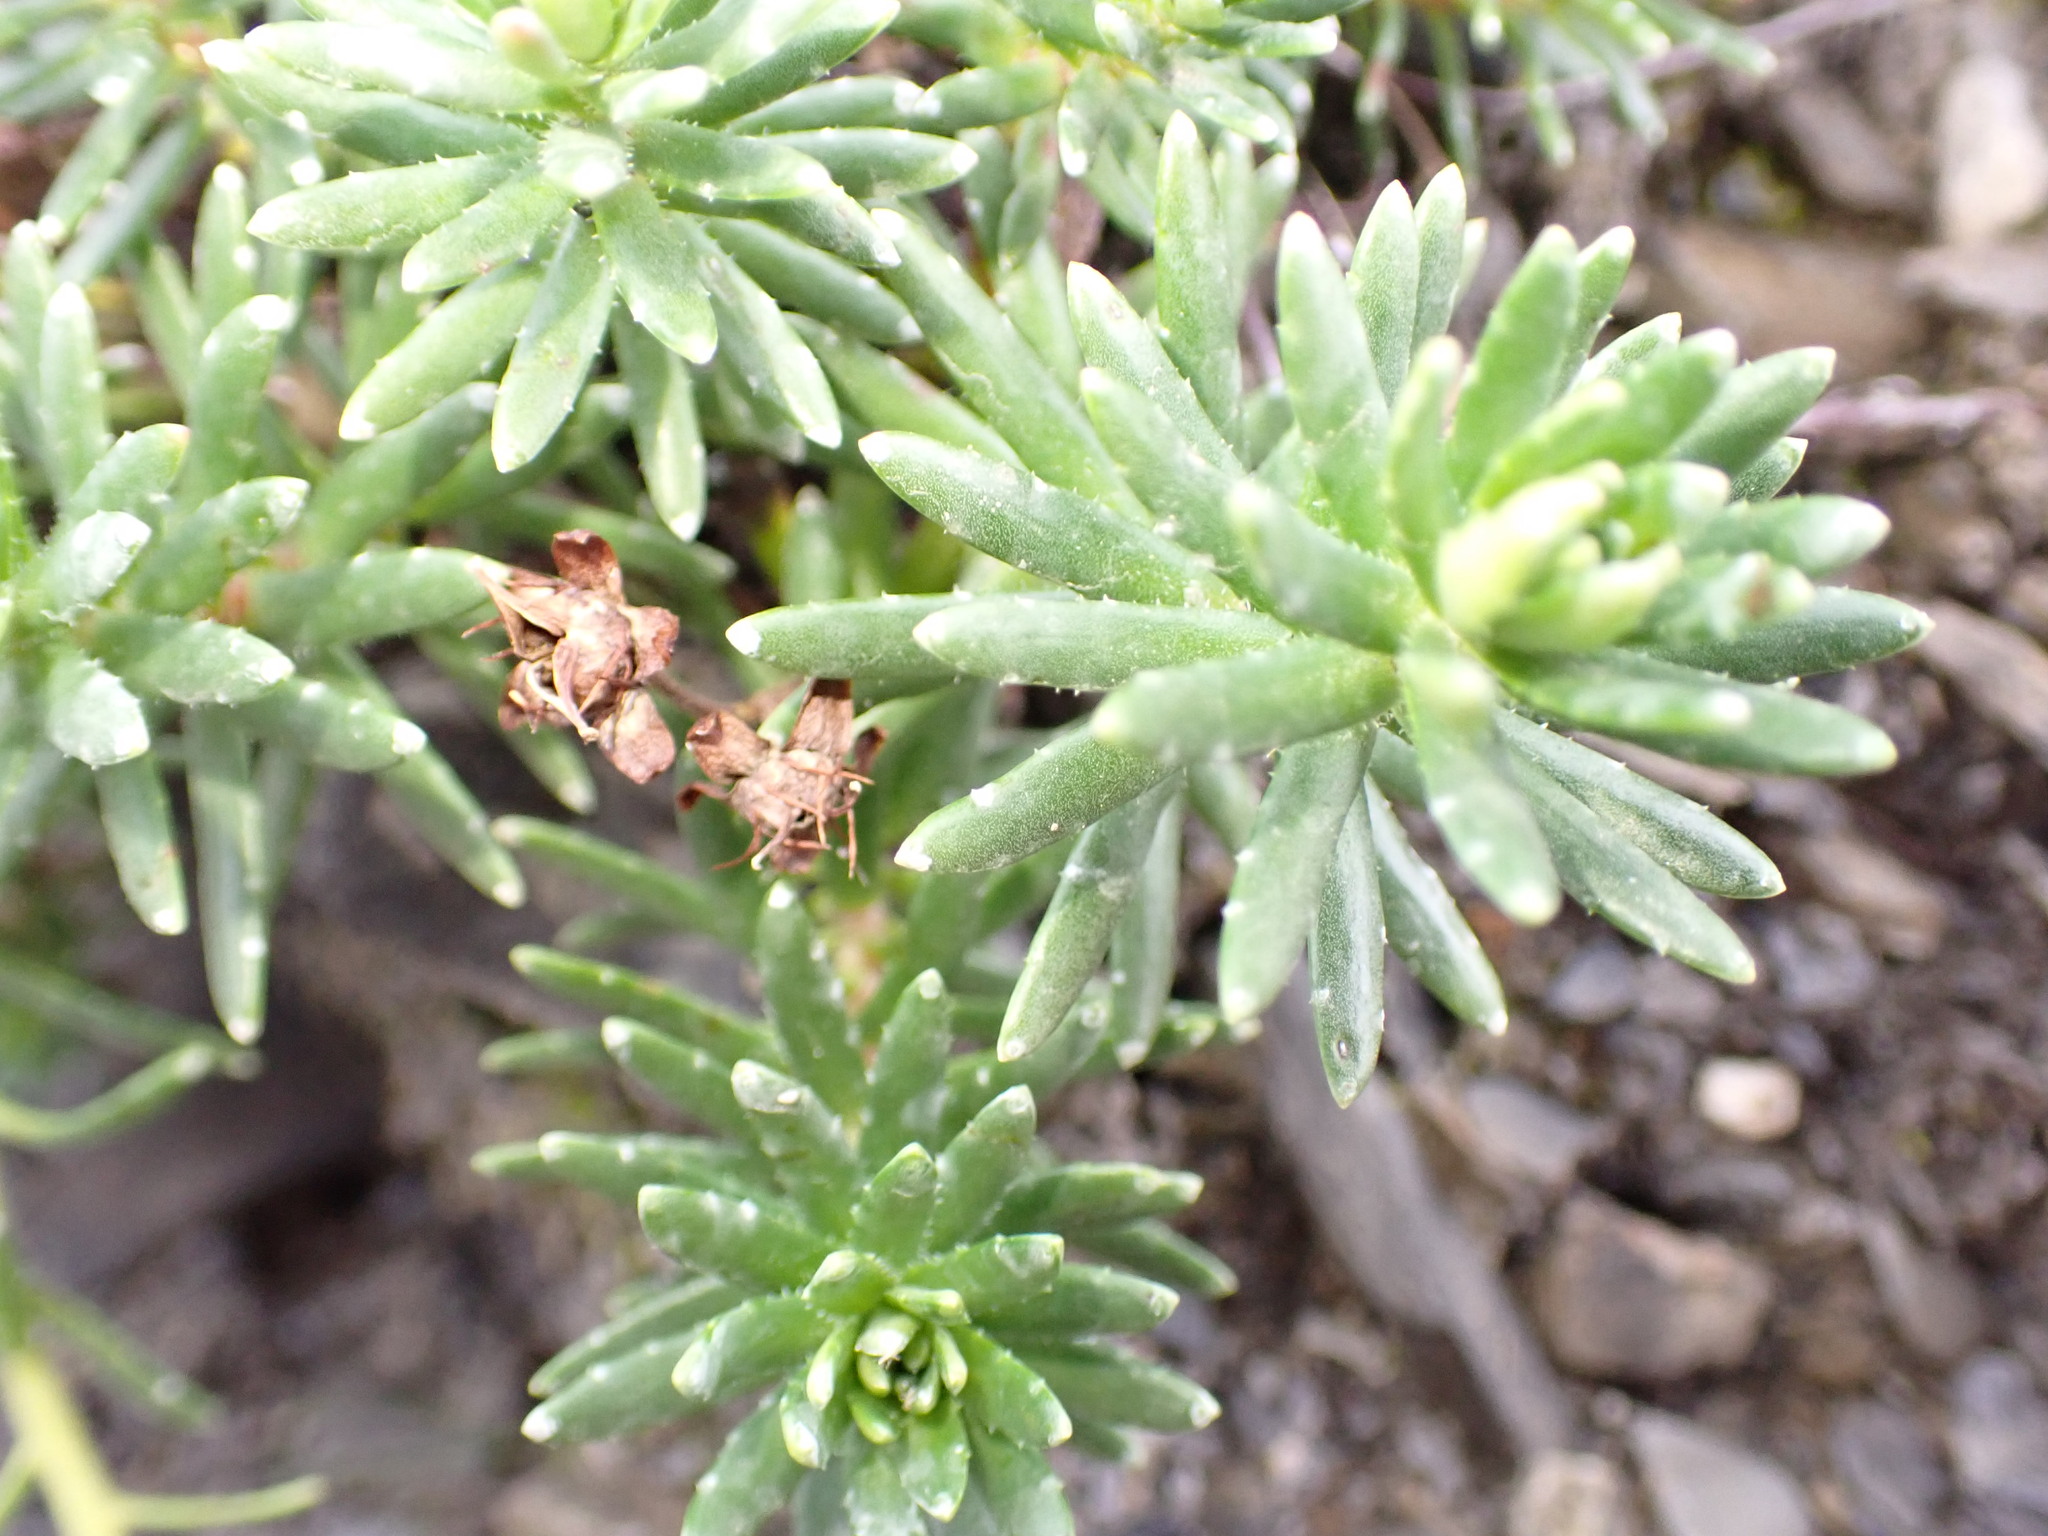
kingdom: Plantae
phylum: Tracheophyta
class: Magnoliopsida
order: Saxifragales
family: Saxifragaceae
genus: Saxifraga
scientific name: Saxifraga aizoides
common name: Yellow mountain saxifrage
